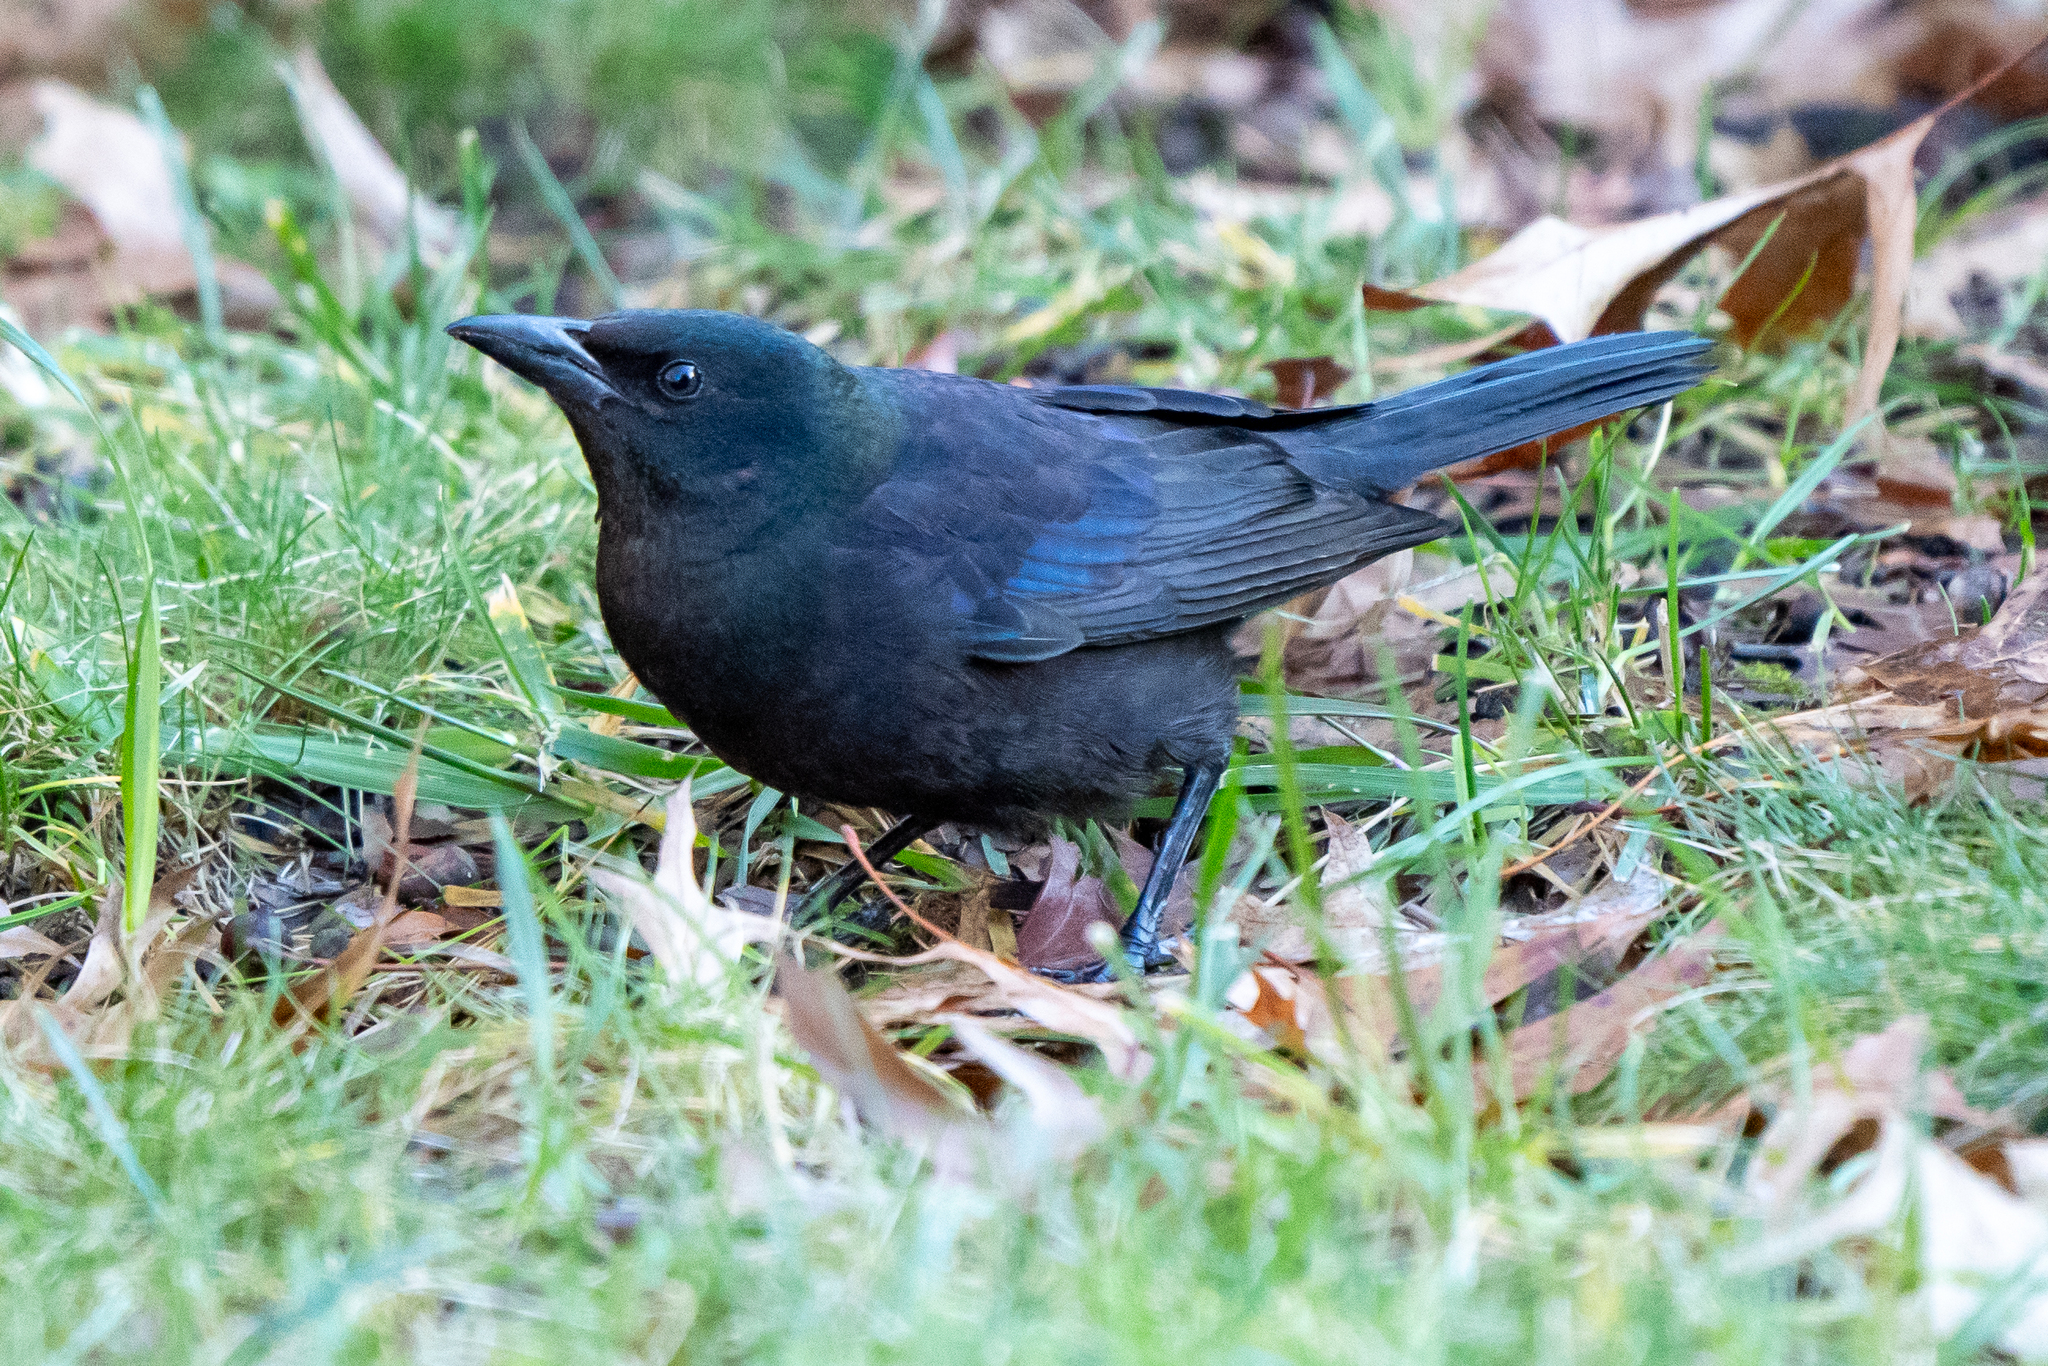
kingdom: Animalia
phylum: Chordata
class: Aves
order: Passeriformes
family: Icteridae
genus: Quiscalus
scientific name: Quiscalus quiscula
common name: Common grackle
